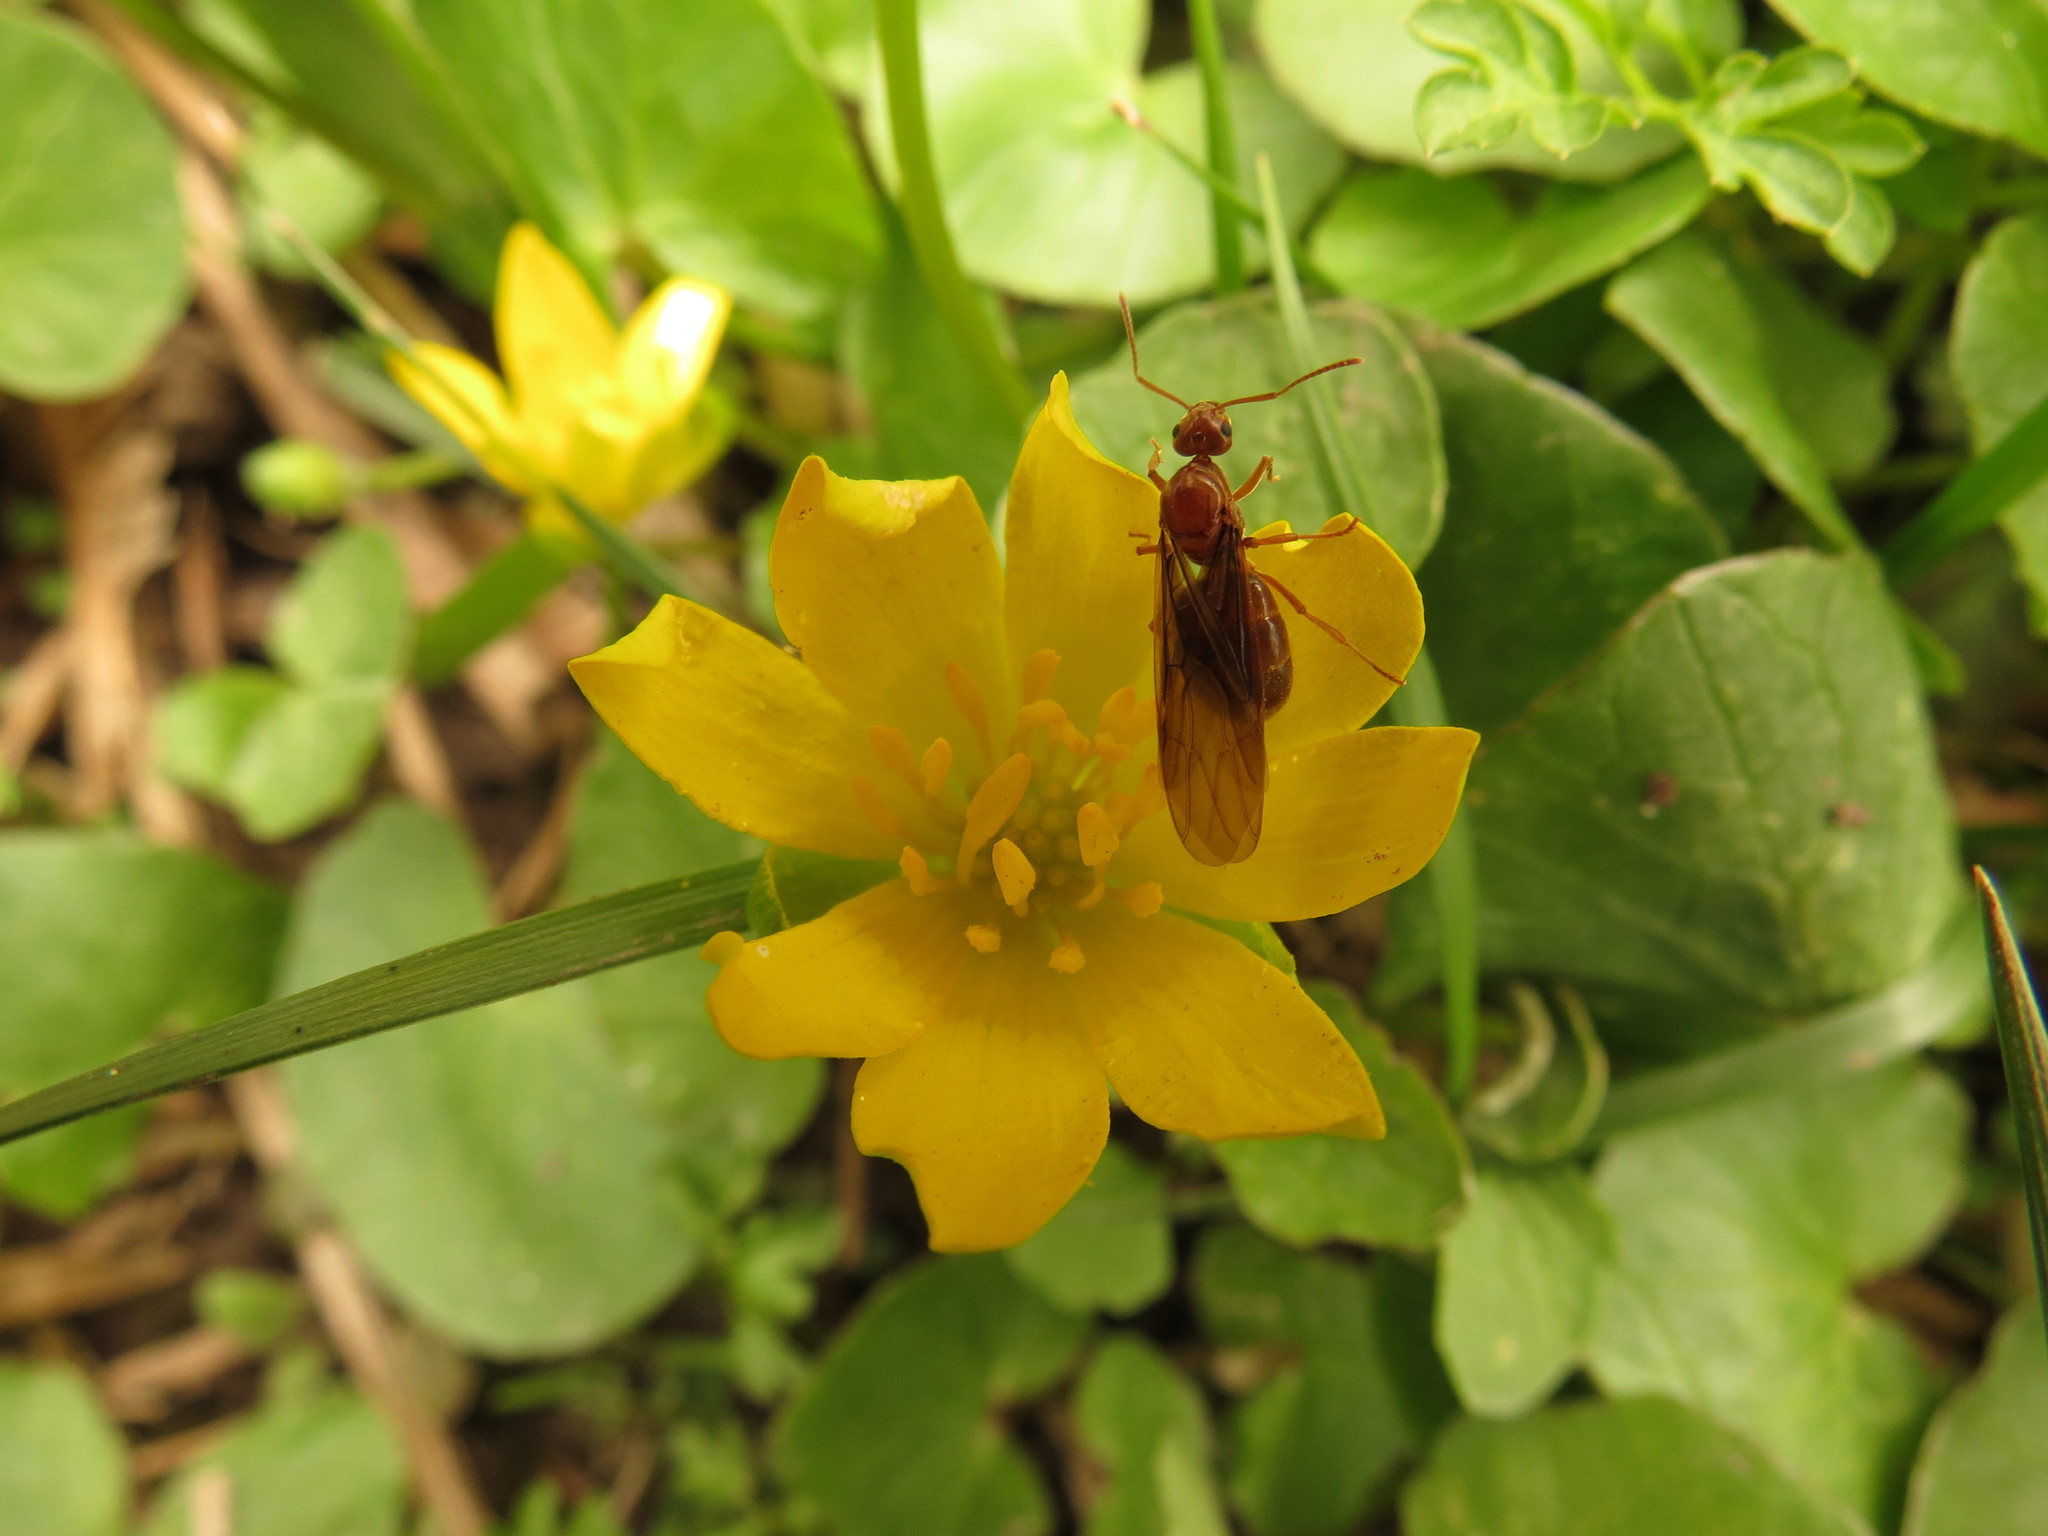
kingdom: Animalia
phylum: Arthropoda
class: Insecta
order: Hymenoptera
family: Formicidae
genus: Prenolepis
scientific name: Prenolepis imparis
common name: Small honey ant
